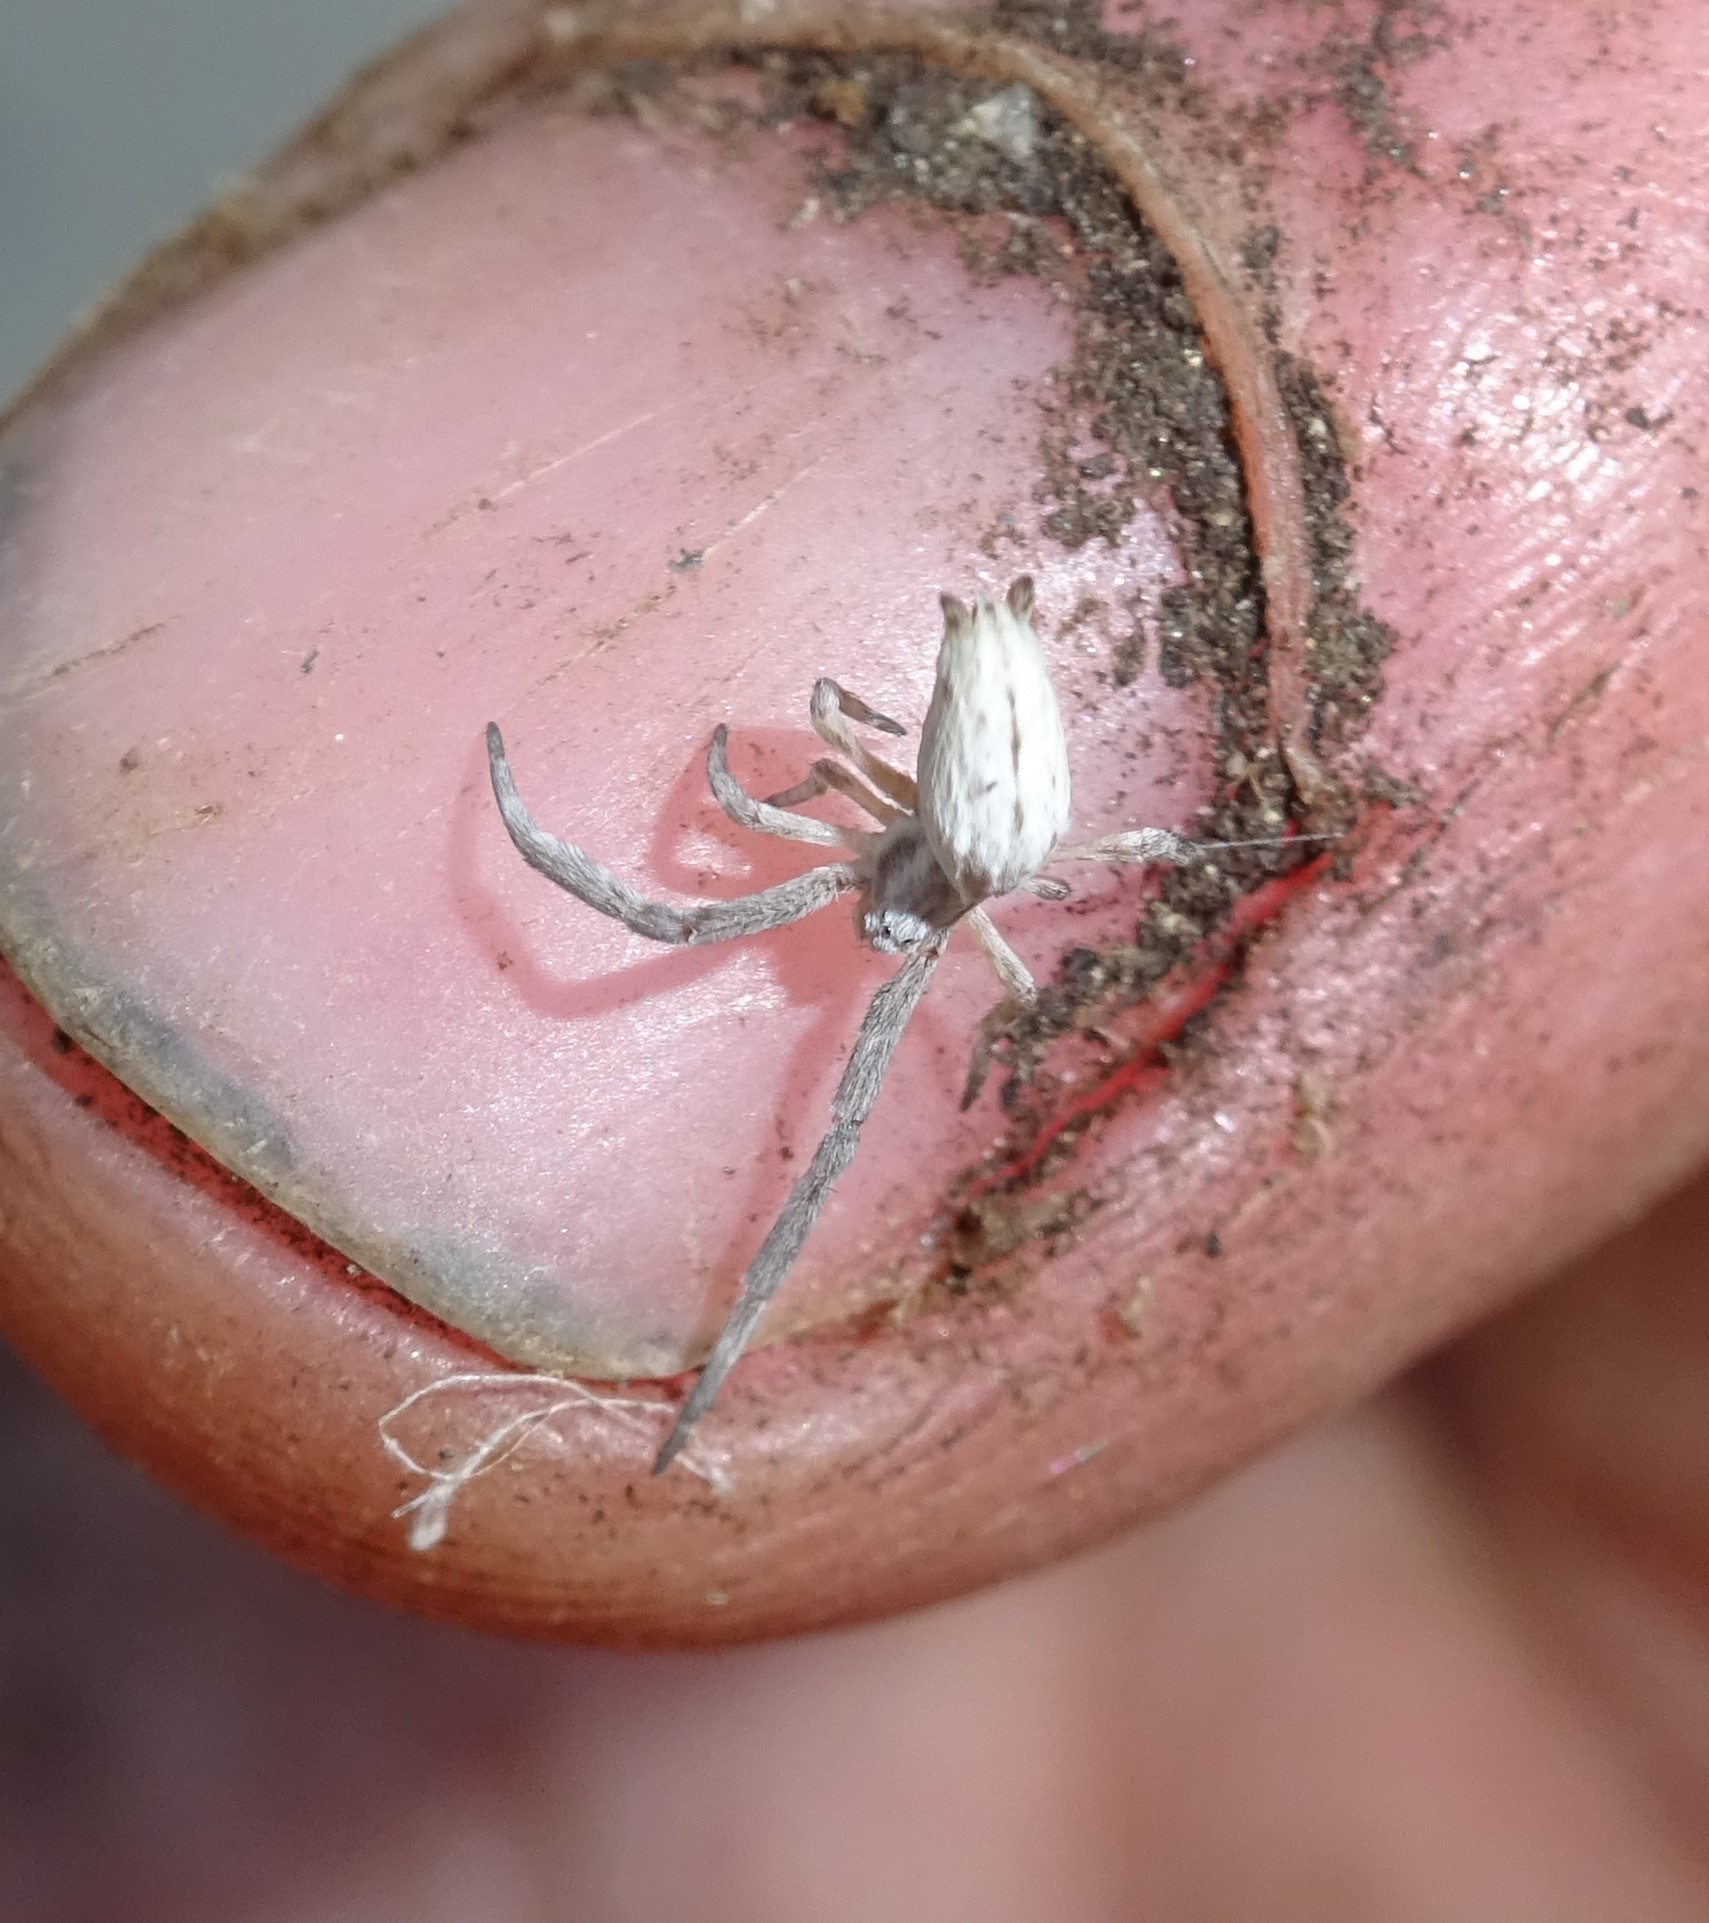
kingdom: Animalia
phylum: Arthropoda
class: Arachnida
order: Araneae
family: Uloboridae
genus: Uloborus
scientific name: Uloborus walckenaerius
